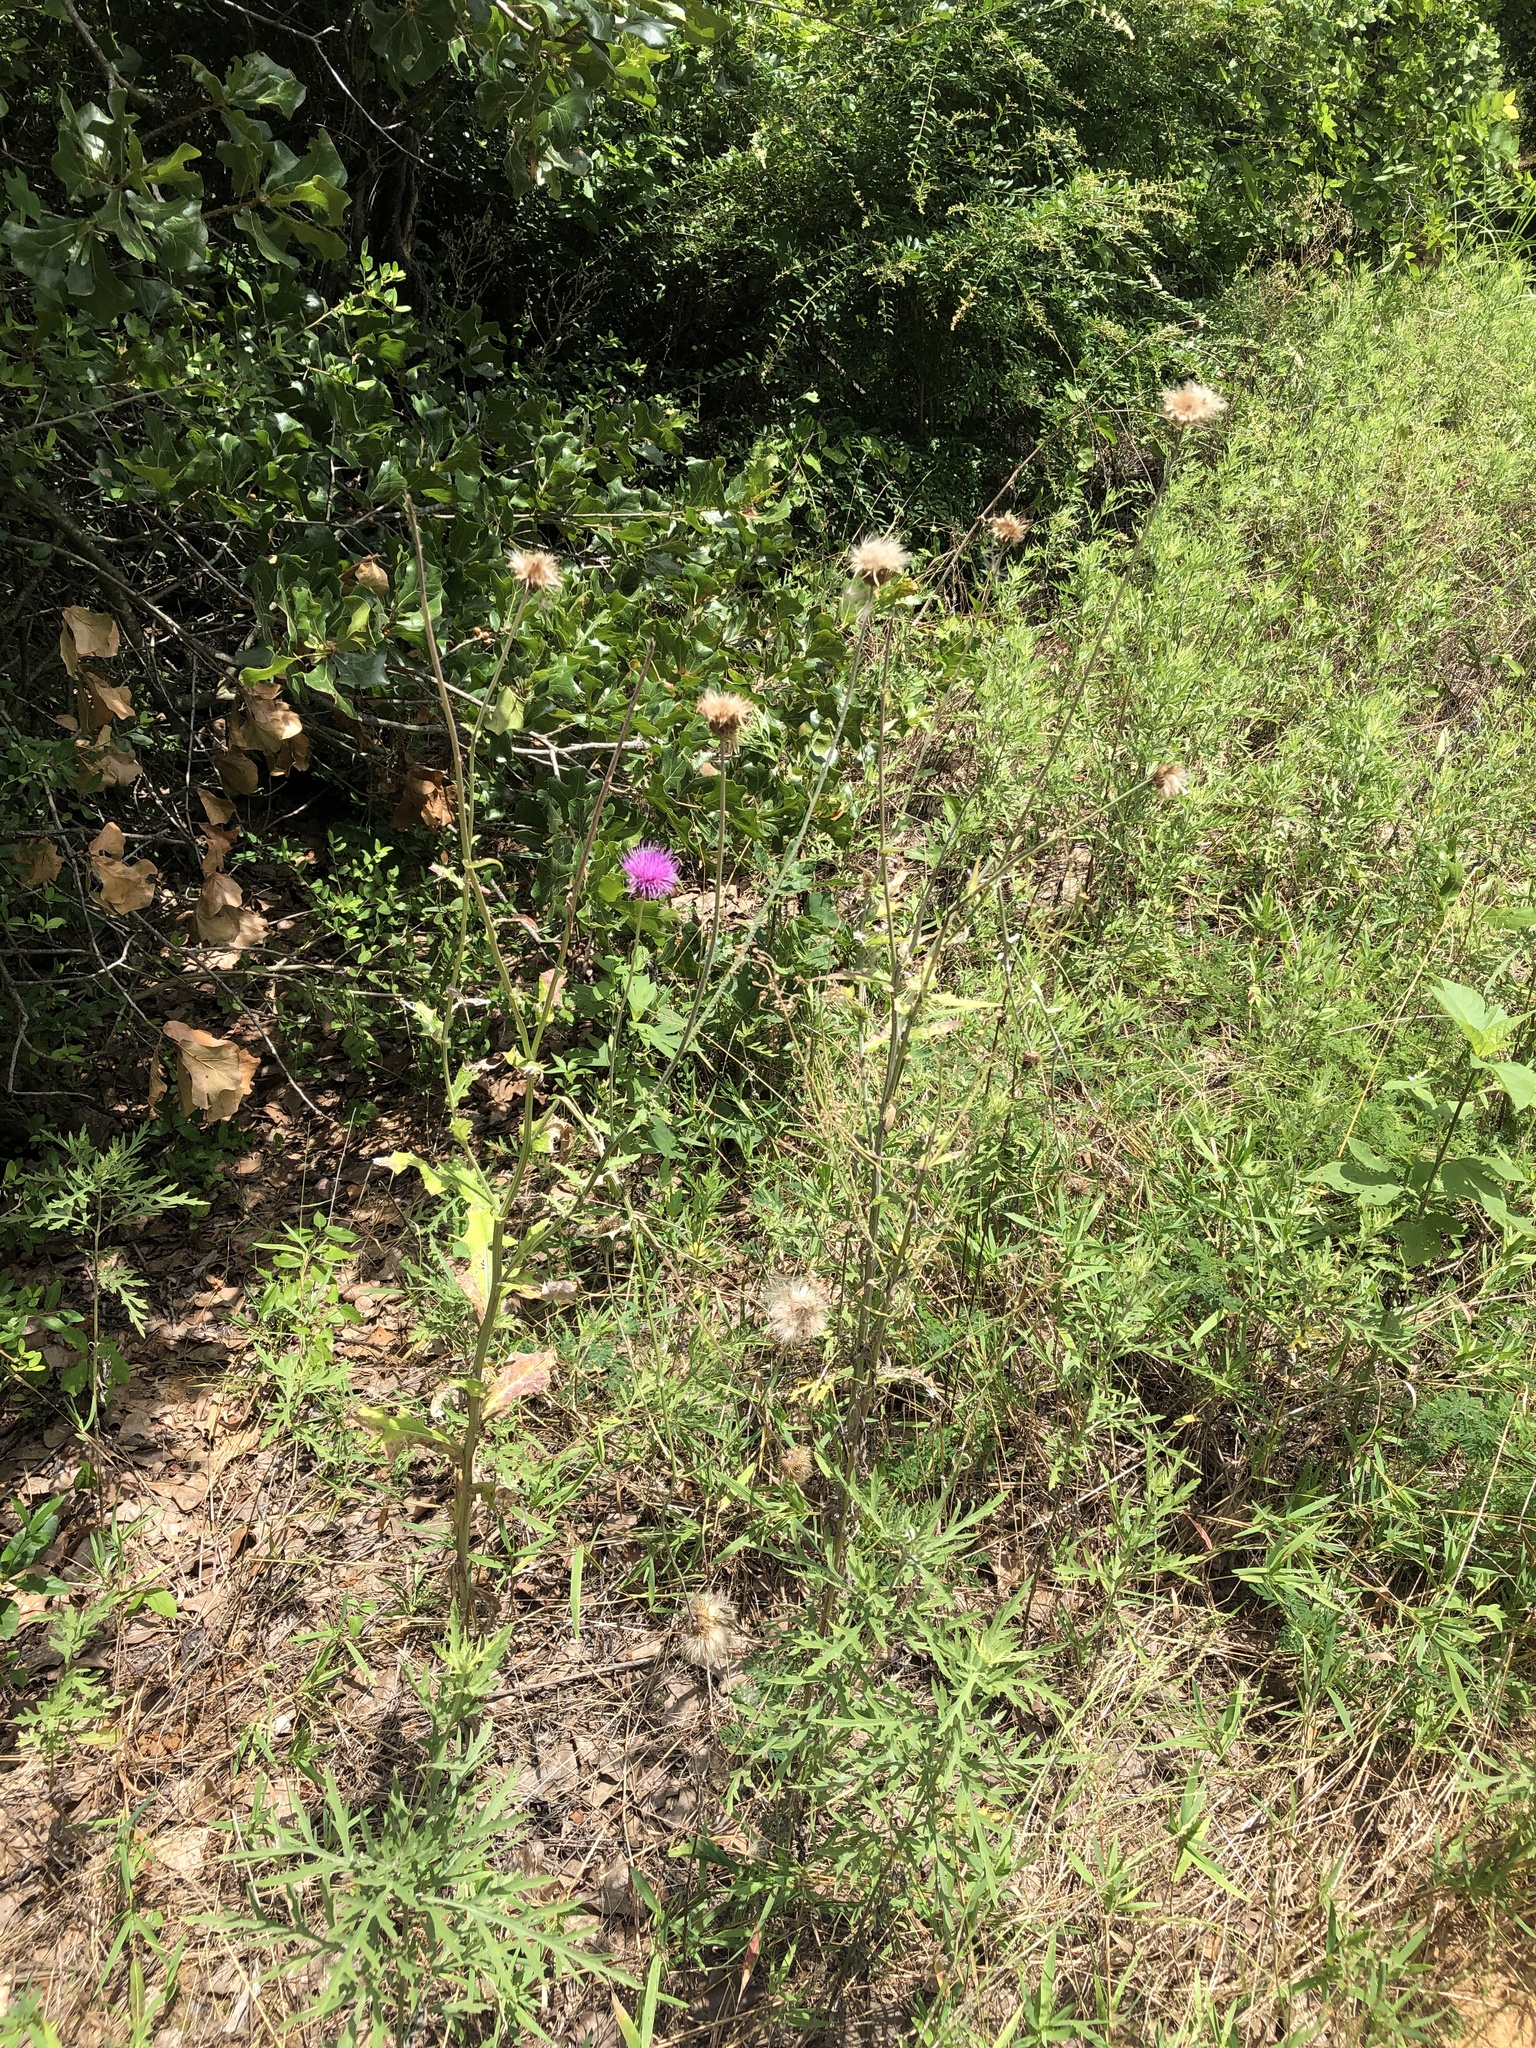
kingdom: Plantae
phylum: Tracheophyta
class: Magnoliopsida
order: Asterales
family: Asteraceae
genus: Cirsium
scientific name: Cirsium texanum
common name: Texas purple thistle
